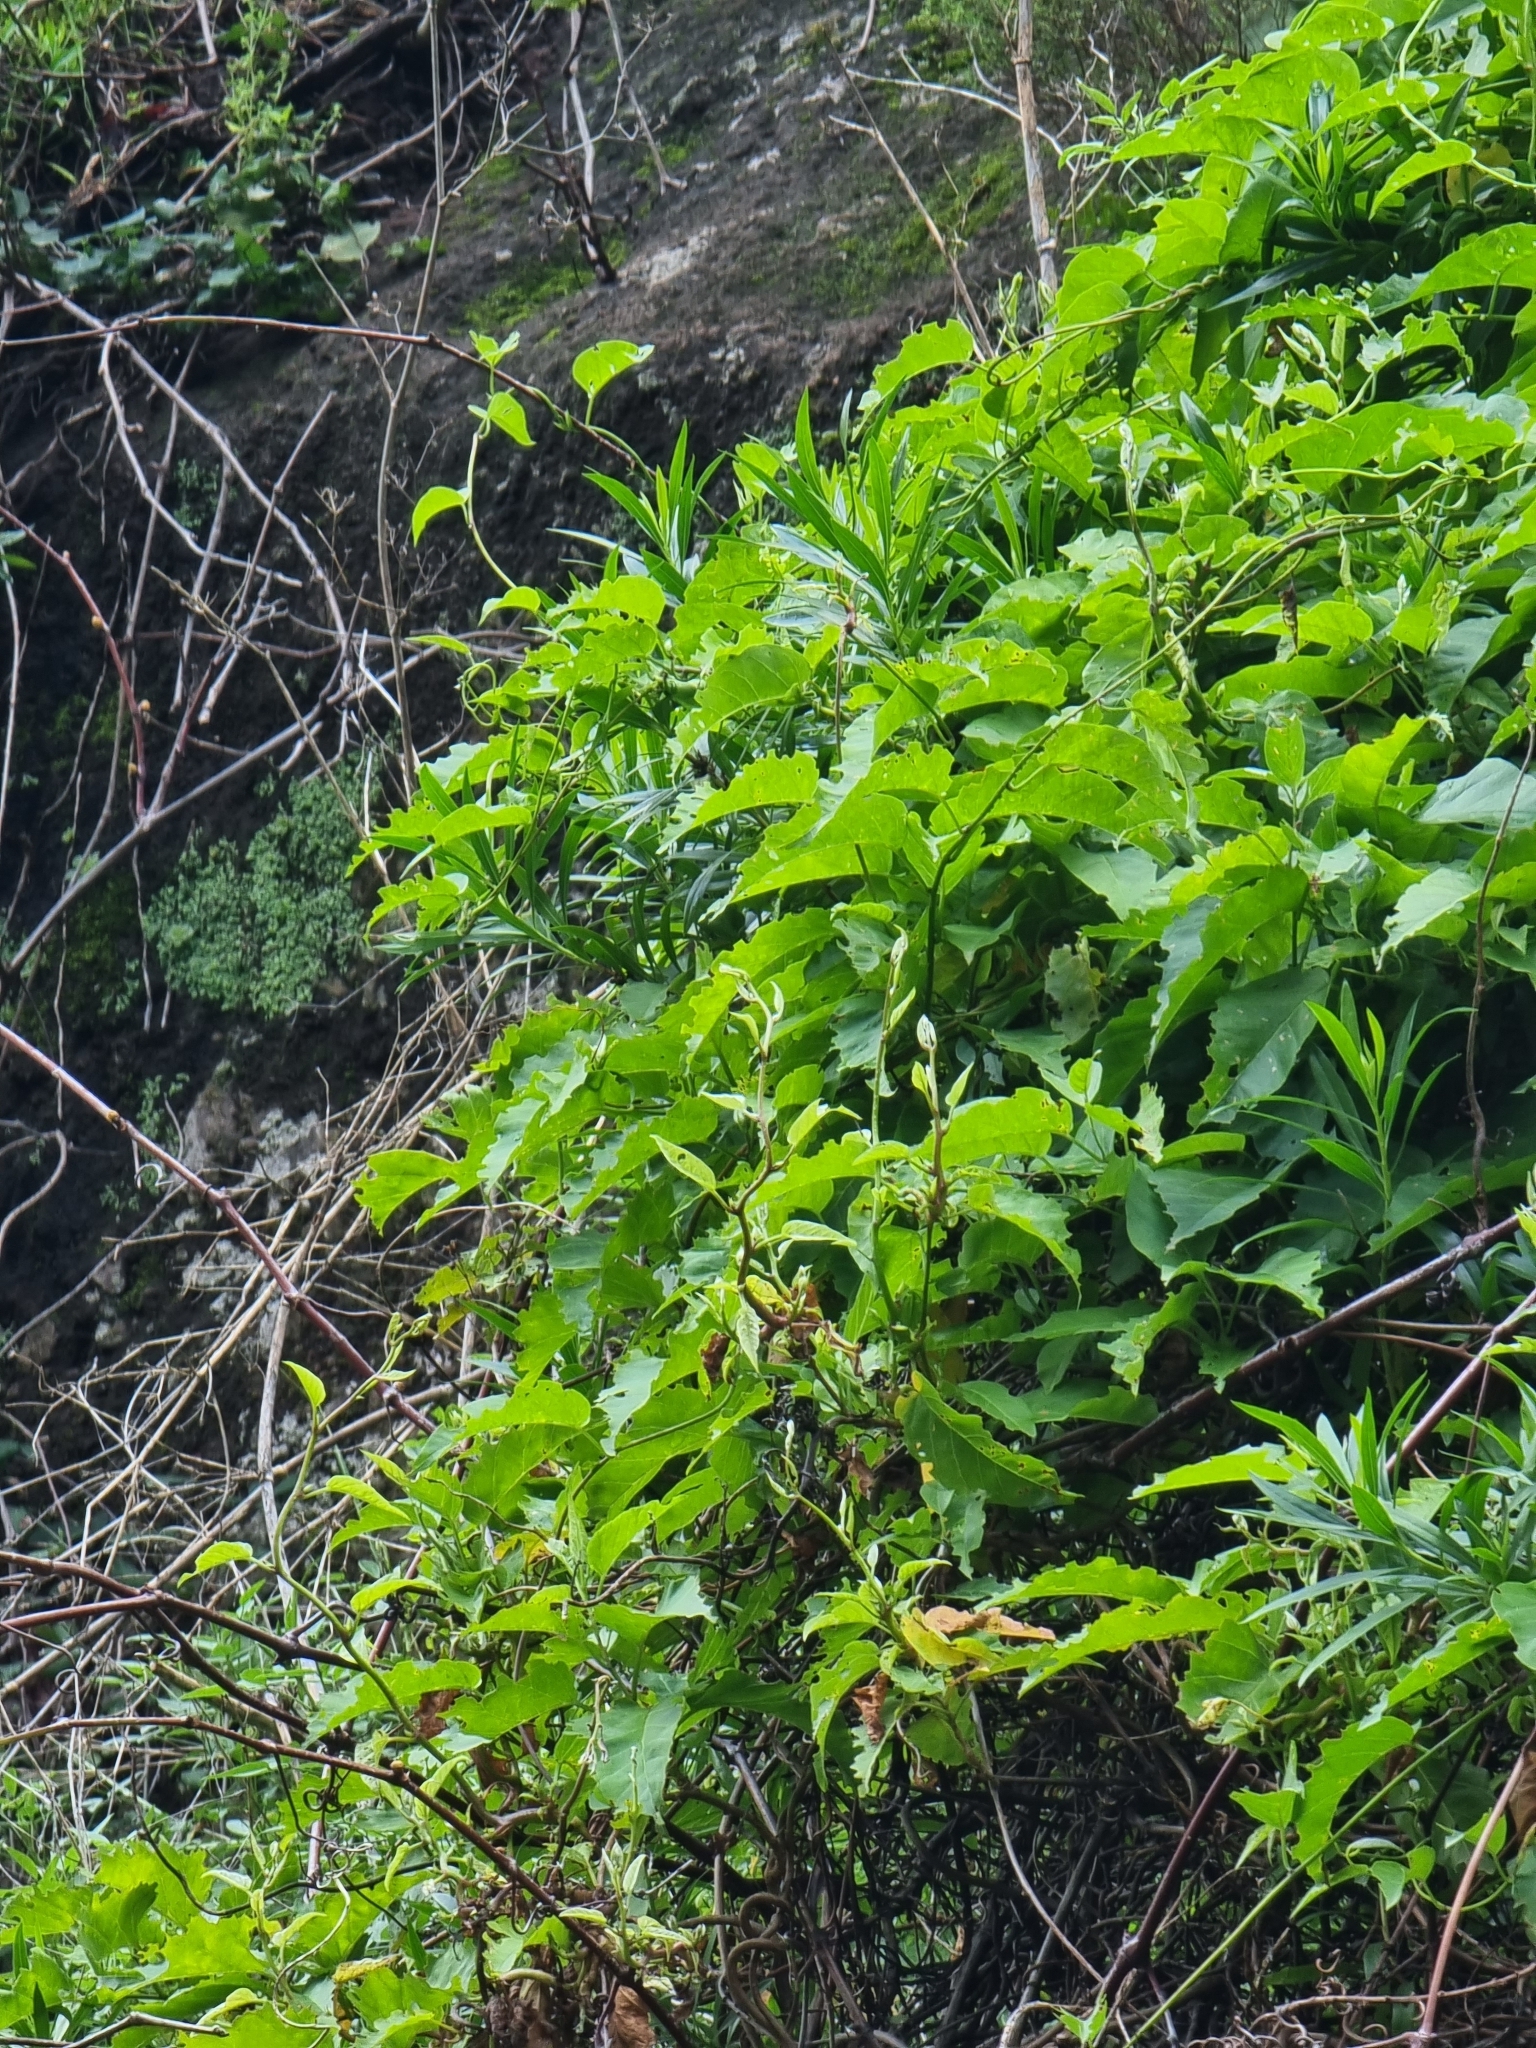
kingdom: Plantae
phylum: Tracheophyta
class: Magnoliopsida
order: Solanales
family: Convolvulaceae
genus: Convolvulus
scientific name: Convolvulus massonii
